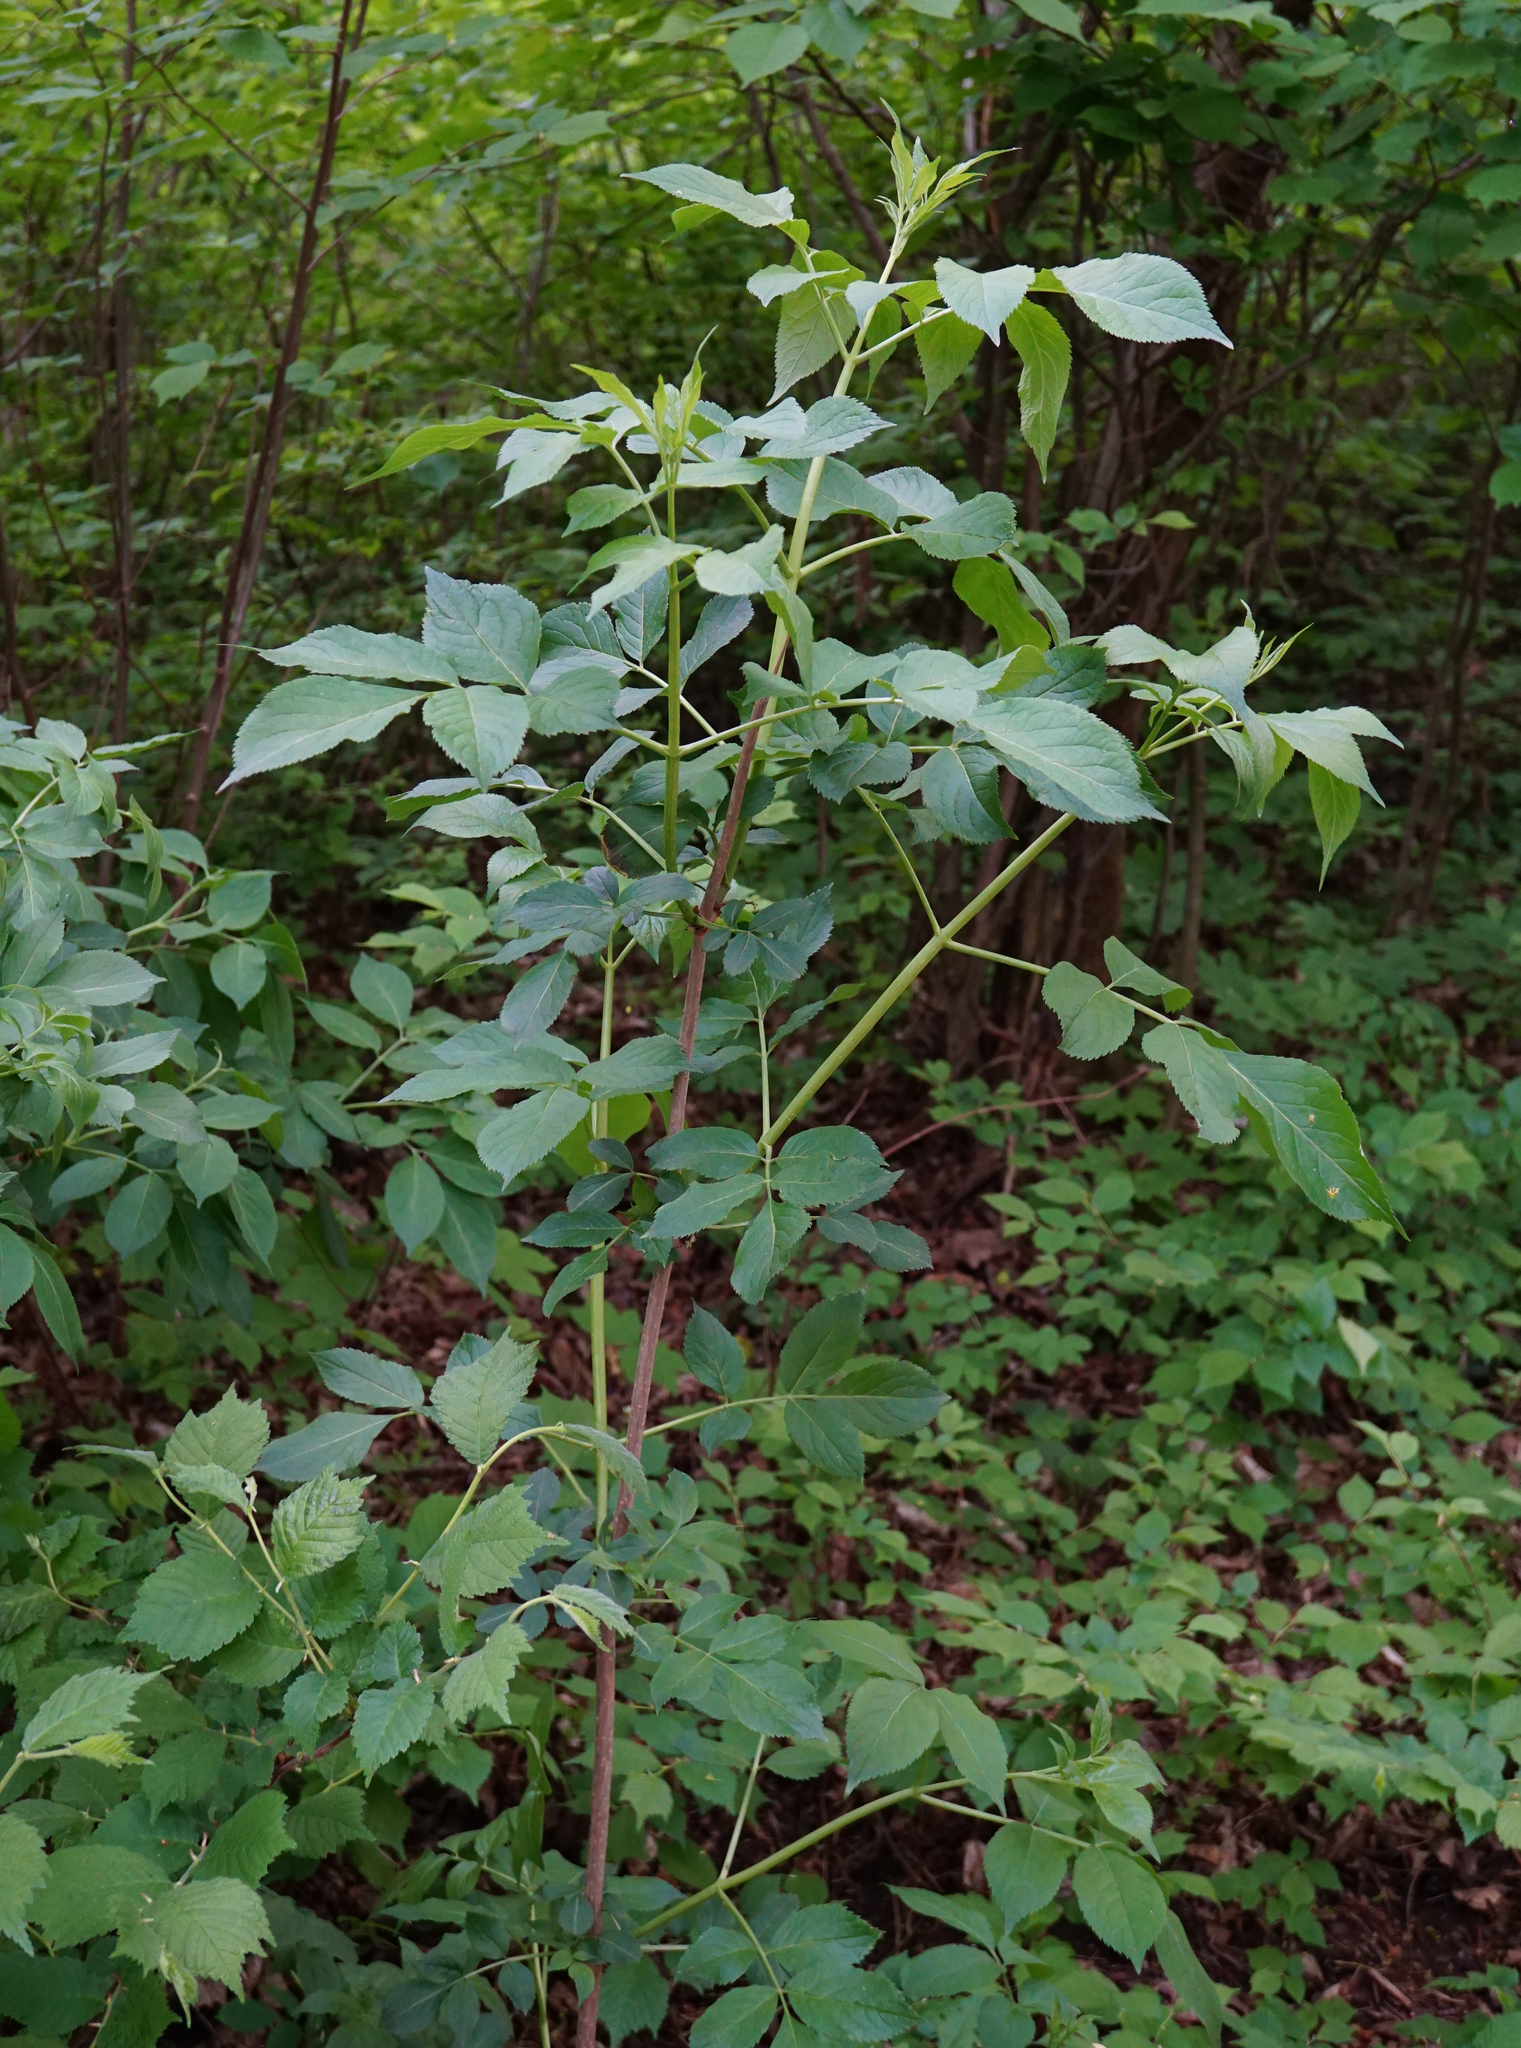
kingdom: Plantae
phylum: Tracheophyta
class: Magnoliopsida
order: Dipsacales
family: Viburnaceae
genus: Sambucus
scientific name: Sambucus nigra
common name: Elder
